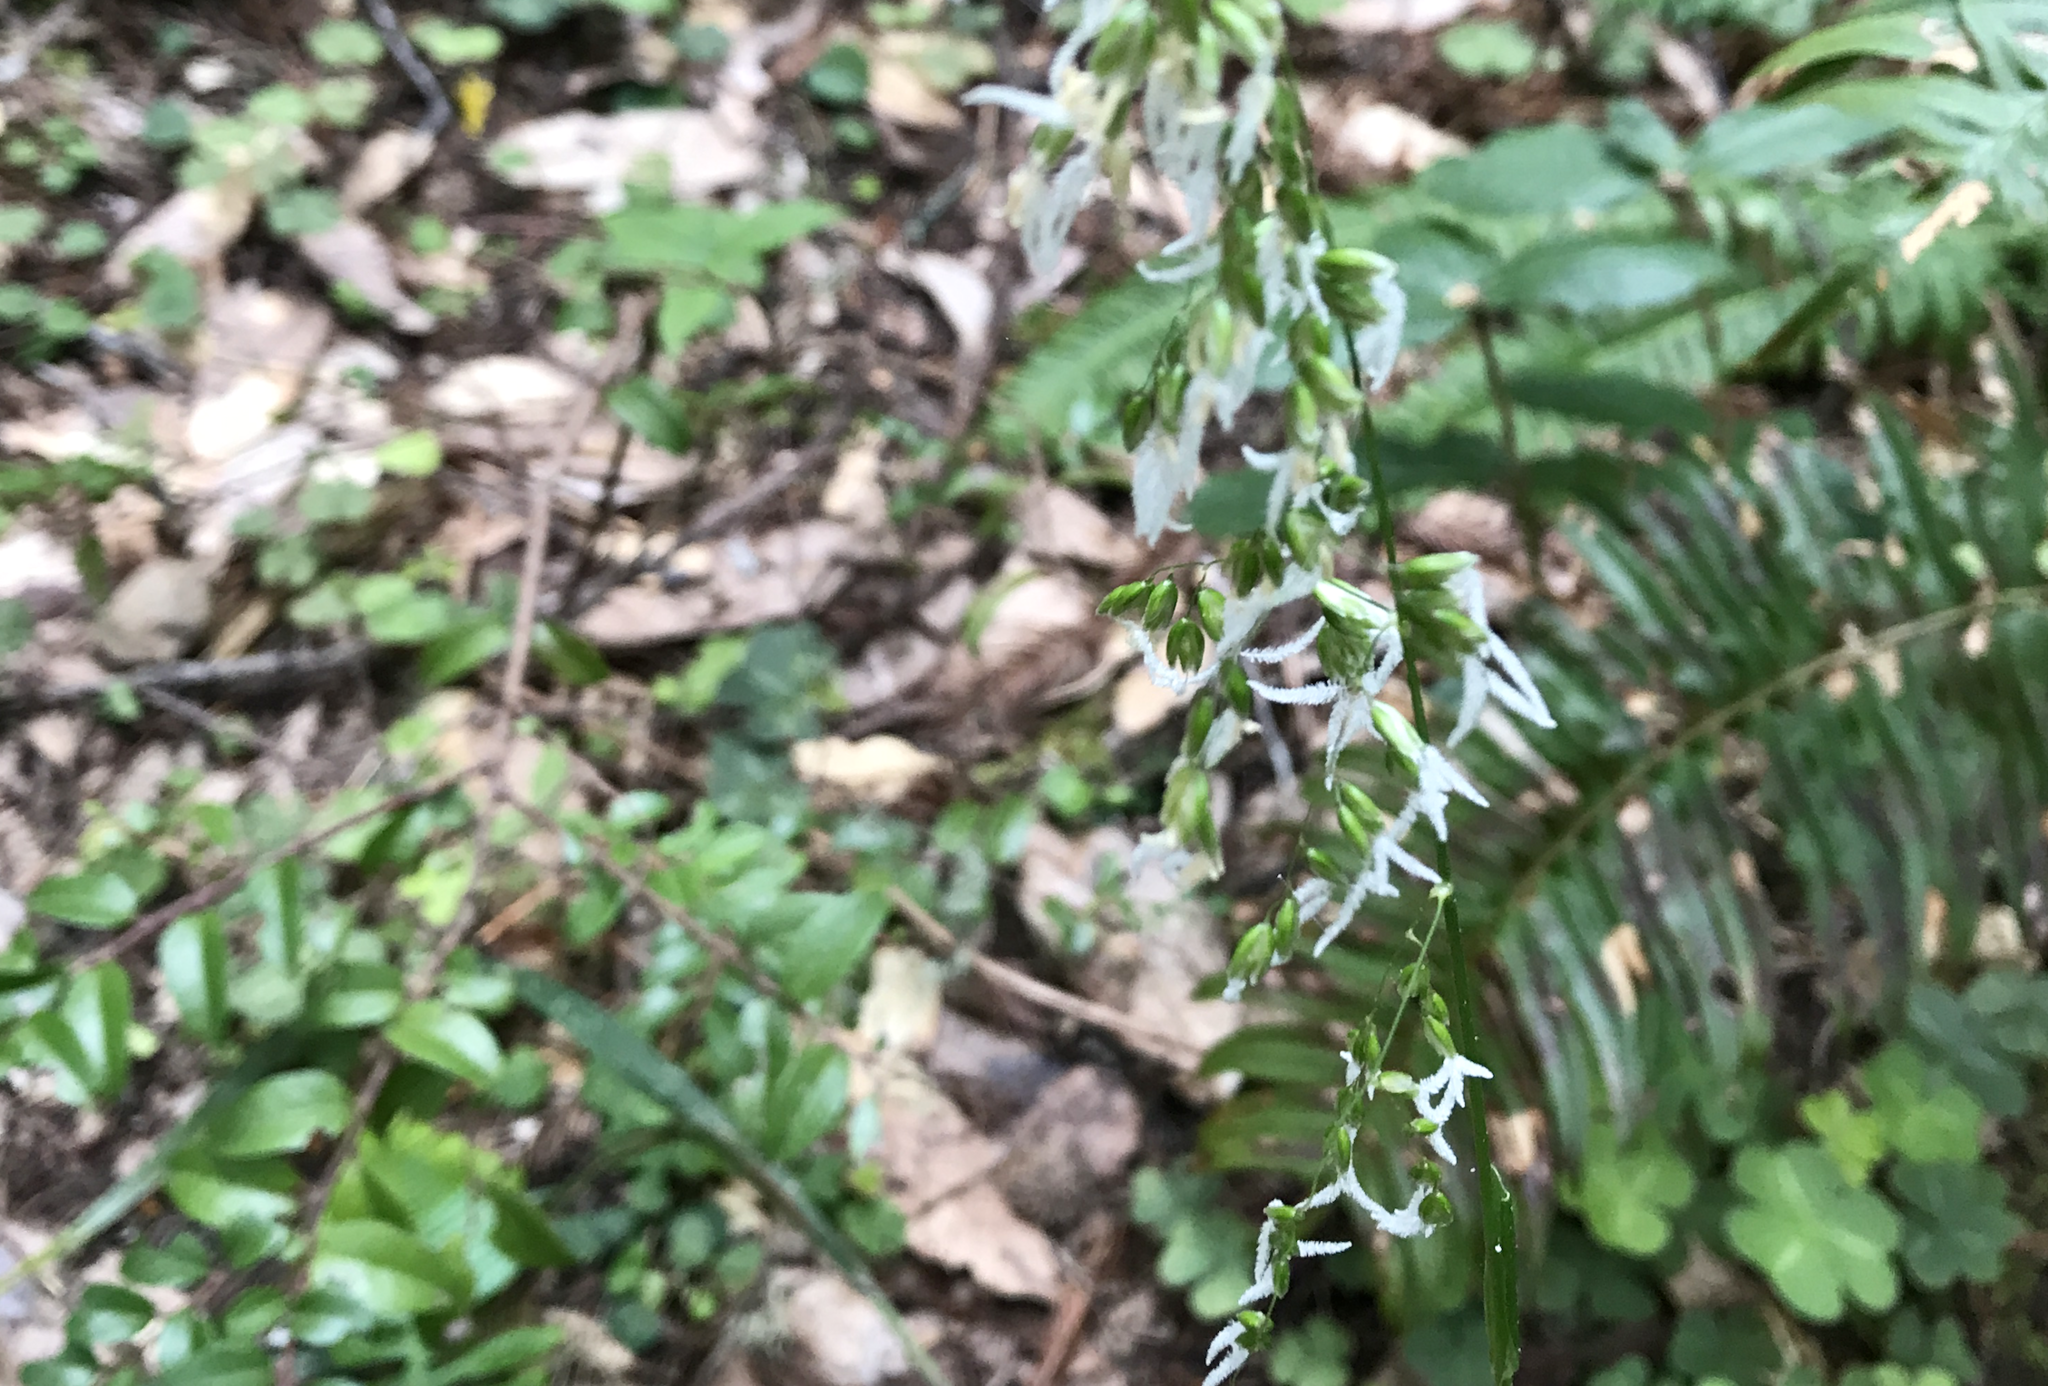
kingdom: Plantae
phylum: Tracheophyta
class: Liliopsida
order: Poales
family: Poaceae
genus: Anthoxanthum
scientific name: Anthoxanthum occidentale
